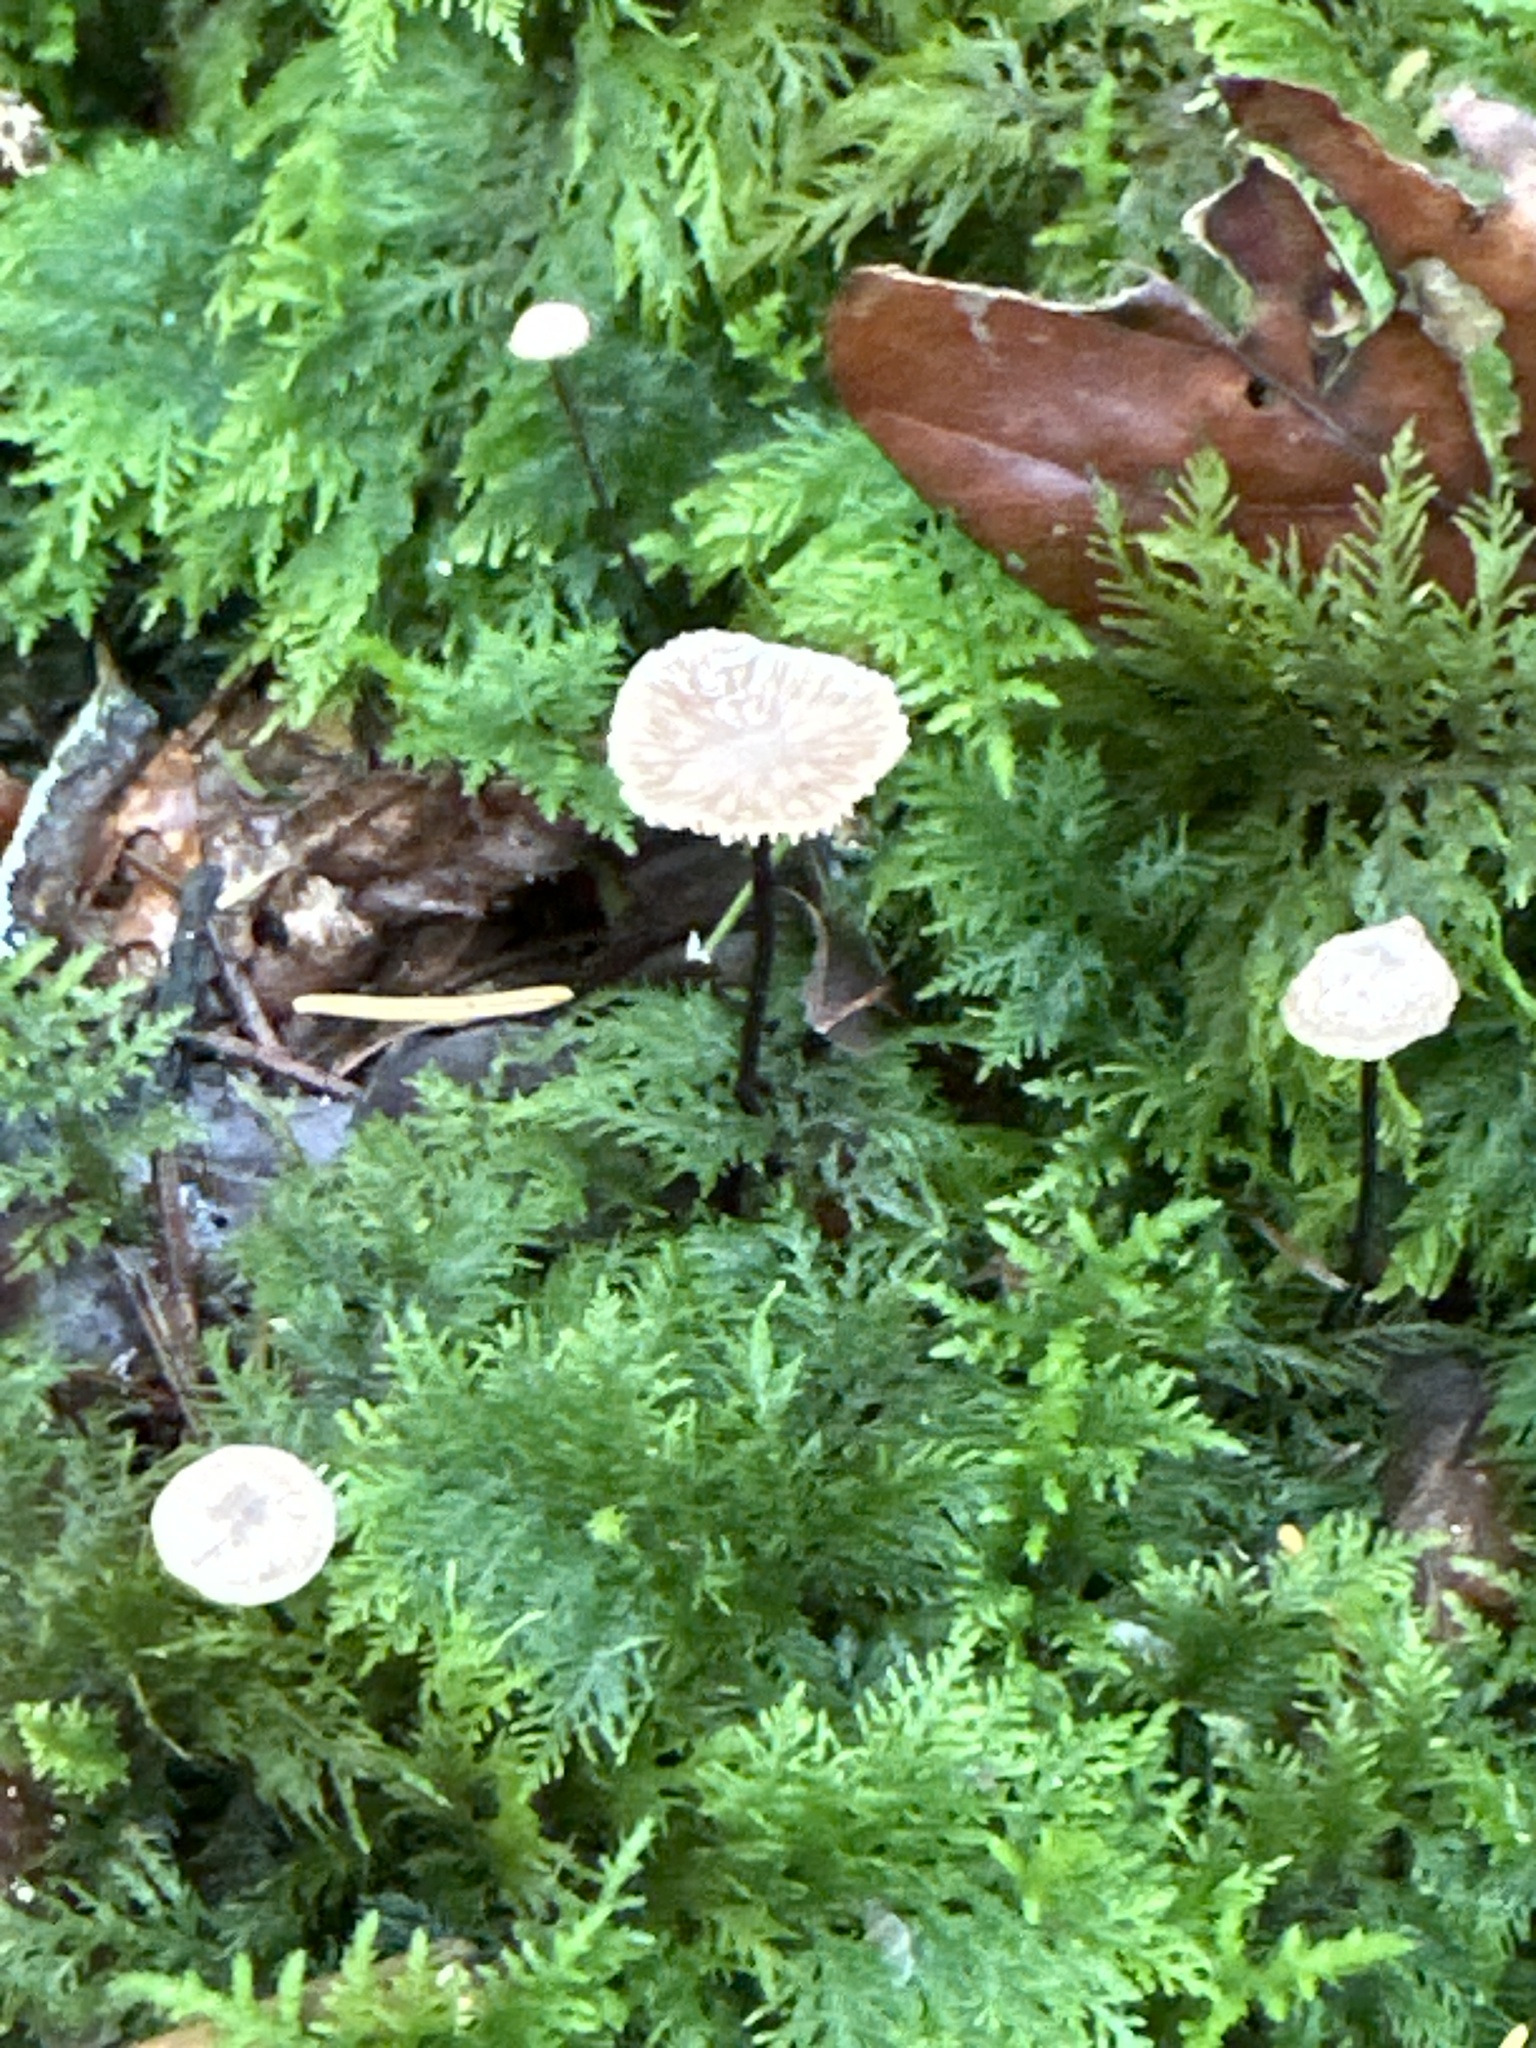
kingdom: Fungi
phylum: Basidiomycota
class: Agaricomycetes
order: Agaricales
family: Omphalotaceae
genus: Paragymnopus
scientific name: Paragymnopus perforans
